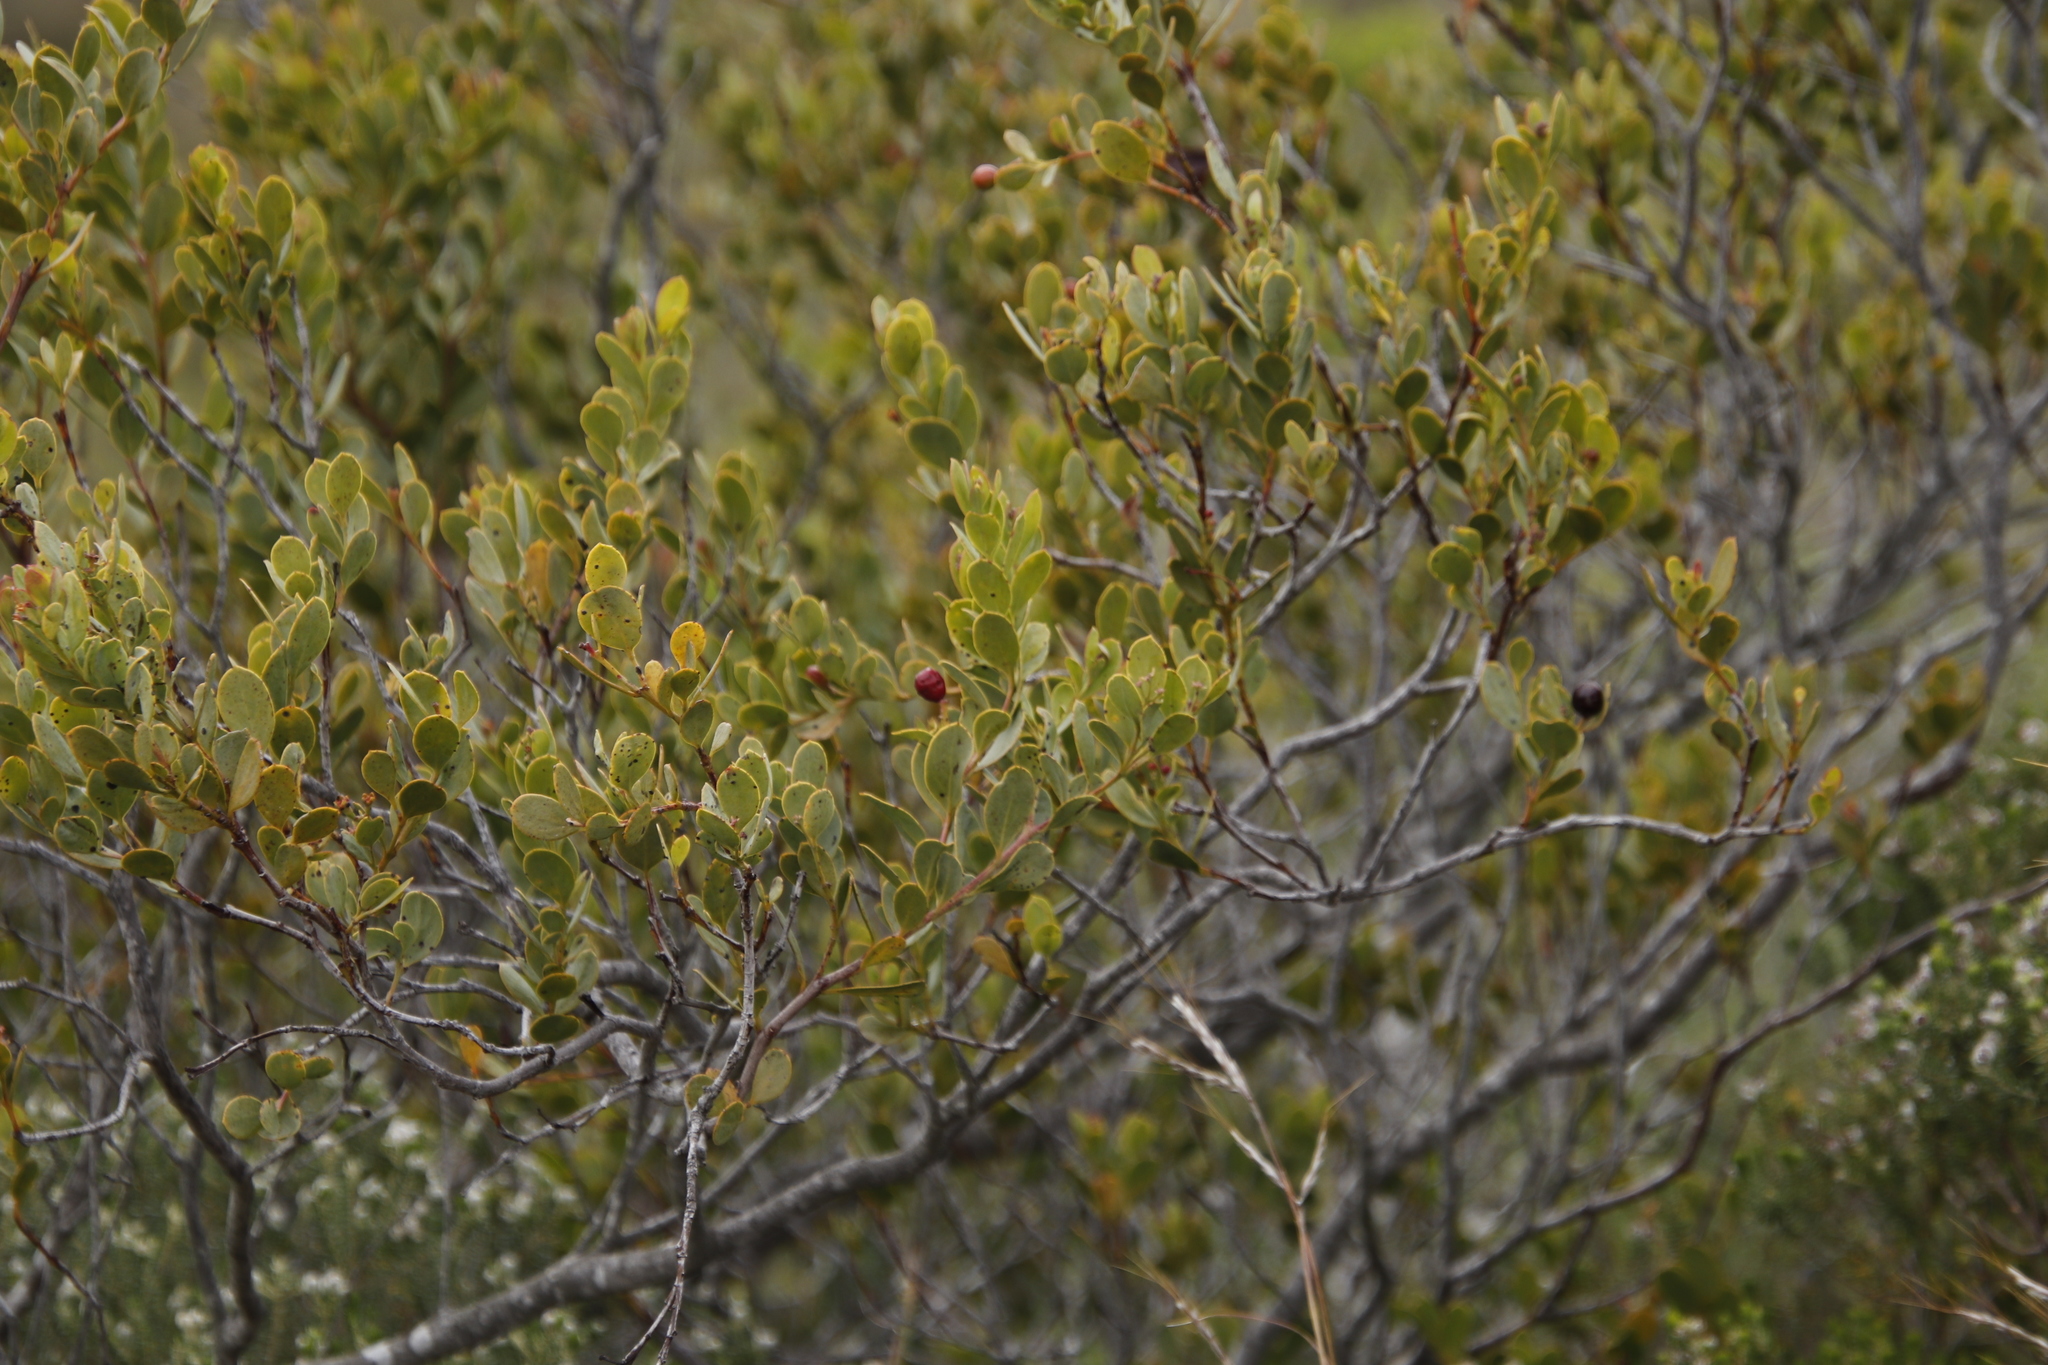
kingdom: Plantae
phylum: Tracheophyta
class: Magnoliopsida
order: Santalales
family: Santalaceae
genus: Osyris
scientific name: Osyris compressa
